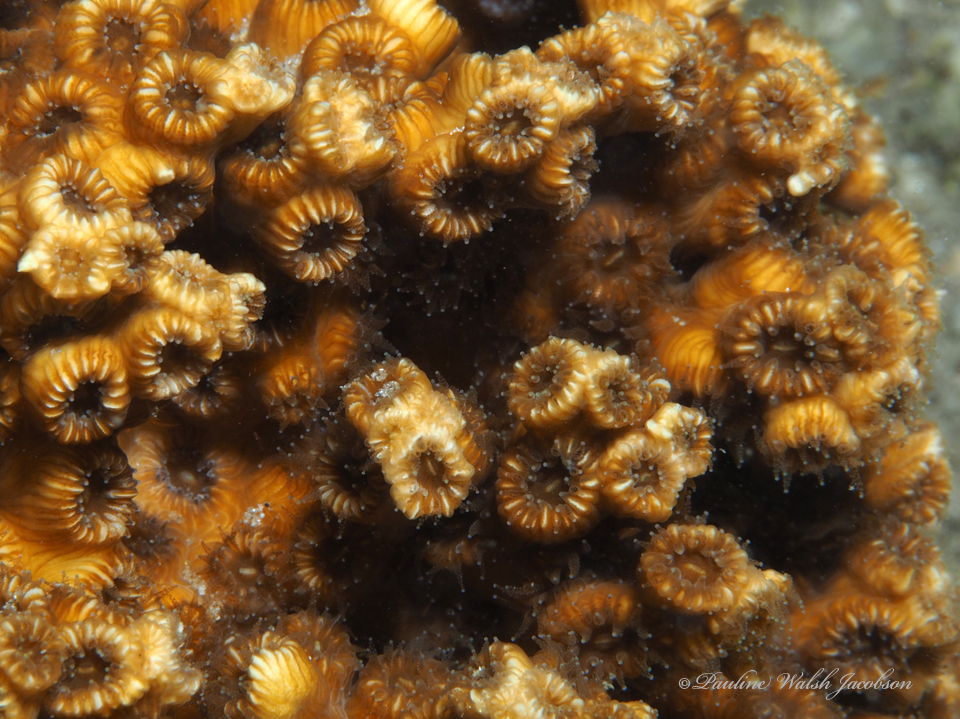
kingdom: Animalia
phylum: Cnidaria
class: Anthozoa
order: Scleractinia
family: Cladocoridae
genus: Cladocora
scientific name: Cladocora arbuscula
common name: Tube coral
